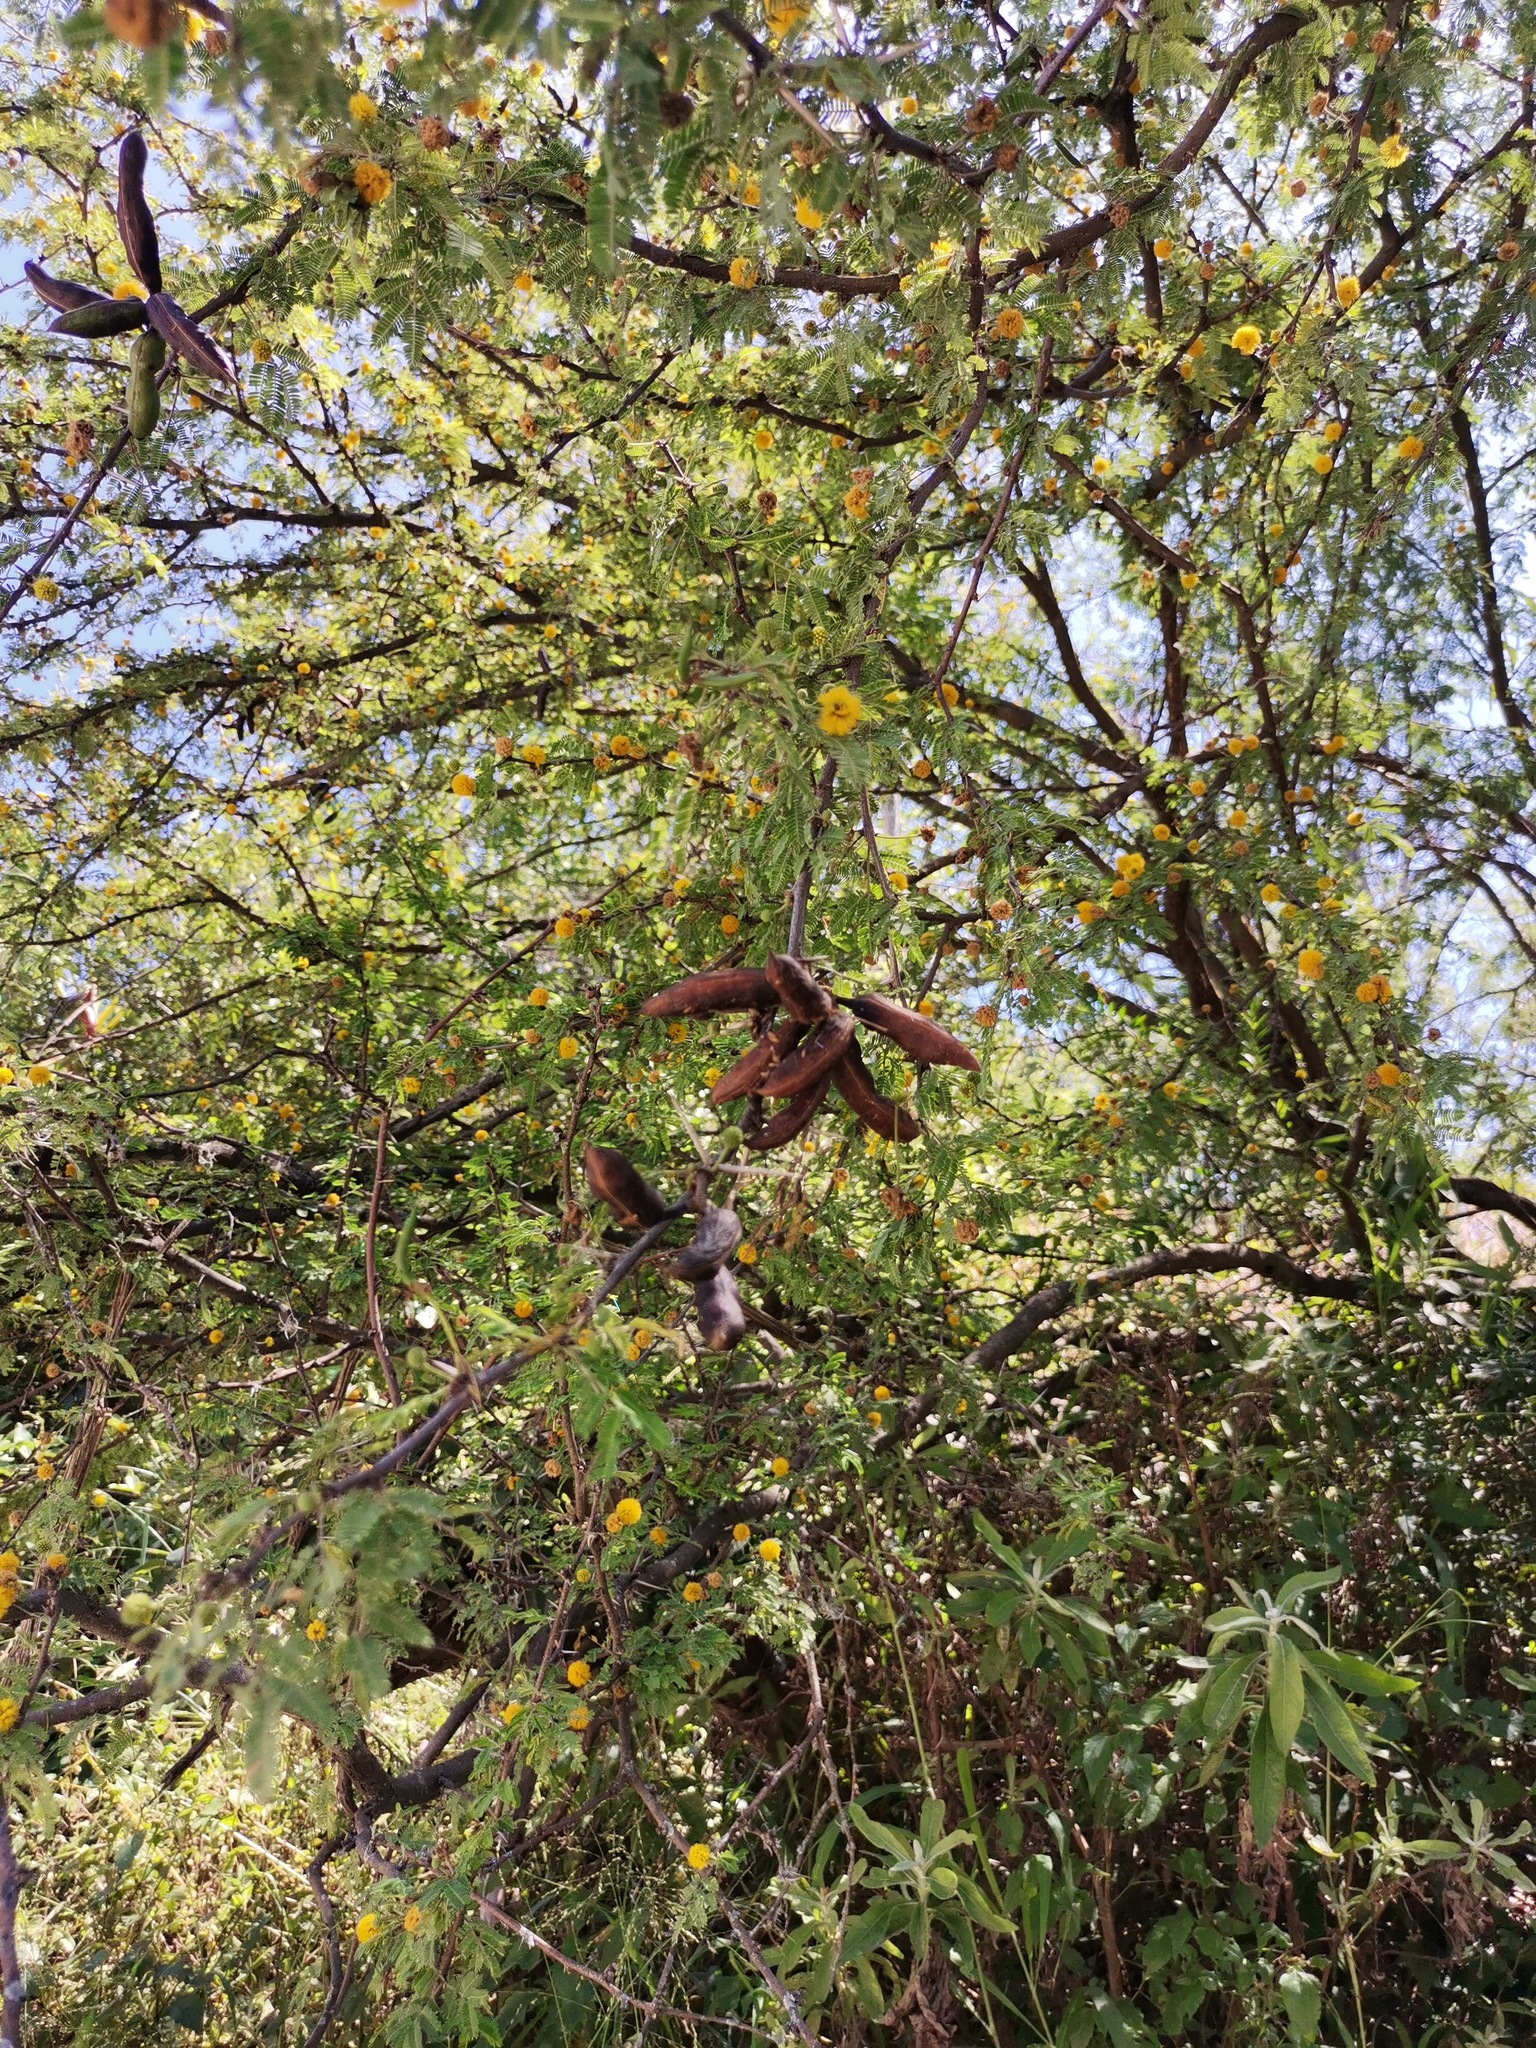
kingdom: Plantae
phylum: Tracheophyta
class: Magnoliopsida
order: Fabales
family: Fabaceae
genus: Vachellia
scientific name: Vachellia farnesiana
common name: Sweet acacia
